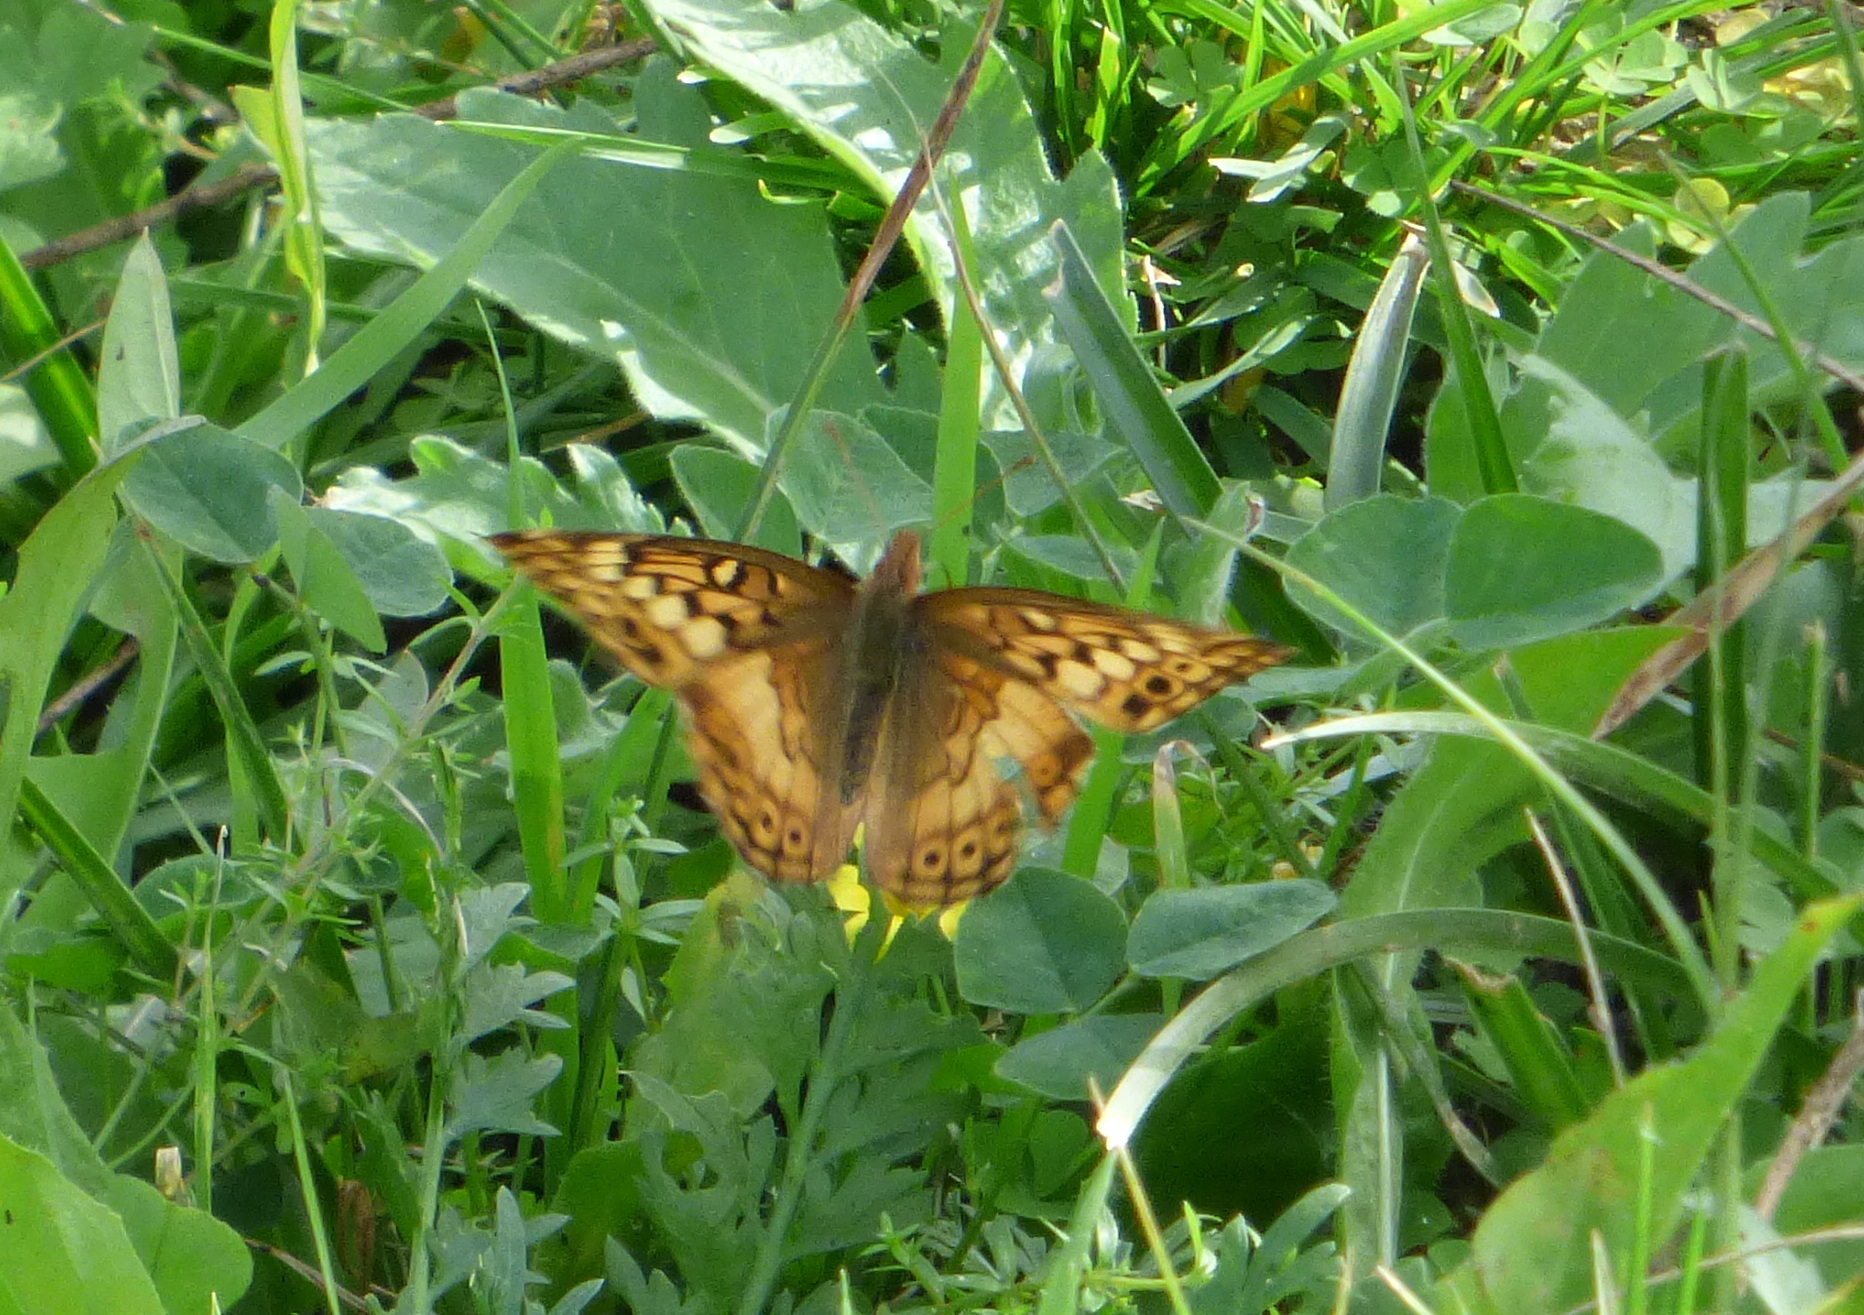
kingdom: Animalia
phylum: Arthropoda
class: Insecta
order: Lepidoptera
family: Nymphalidae
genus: Euptoieta
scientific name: Euptoieta hortensia
